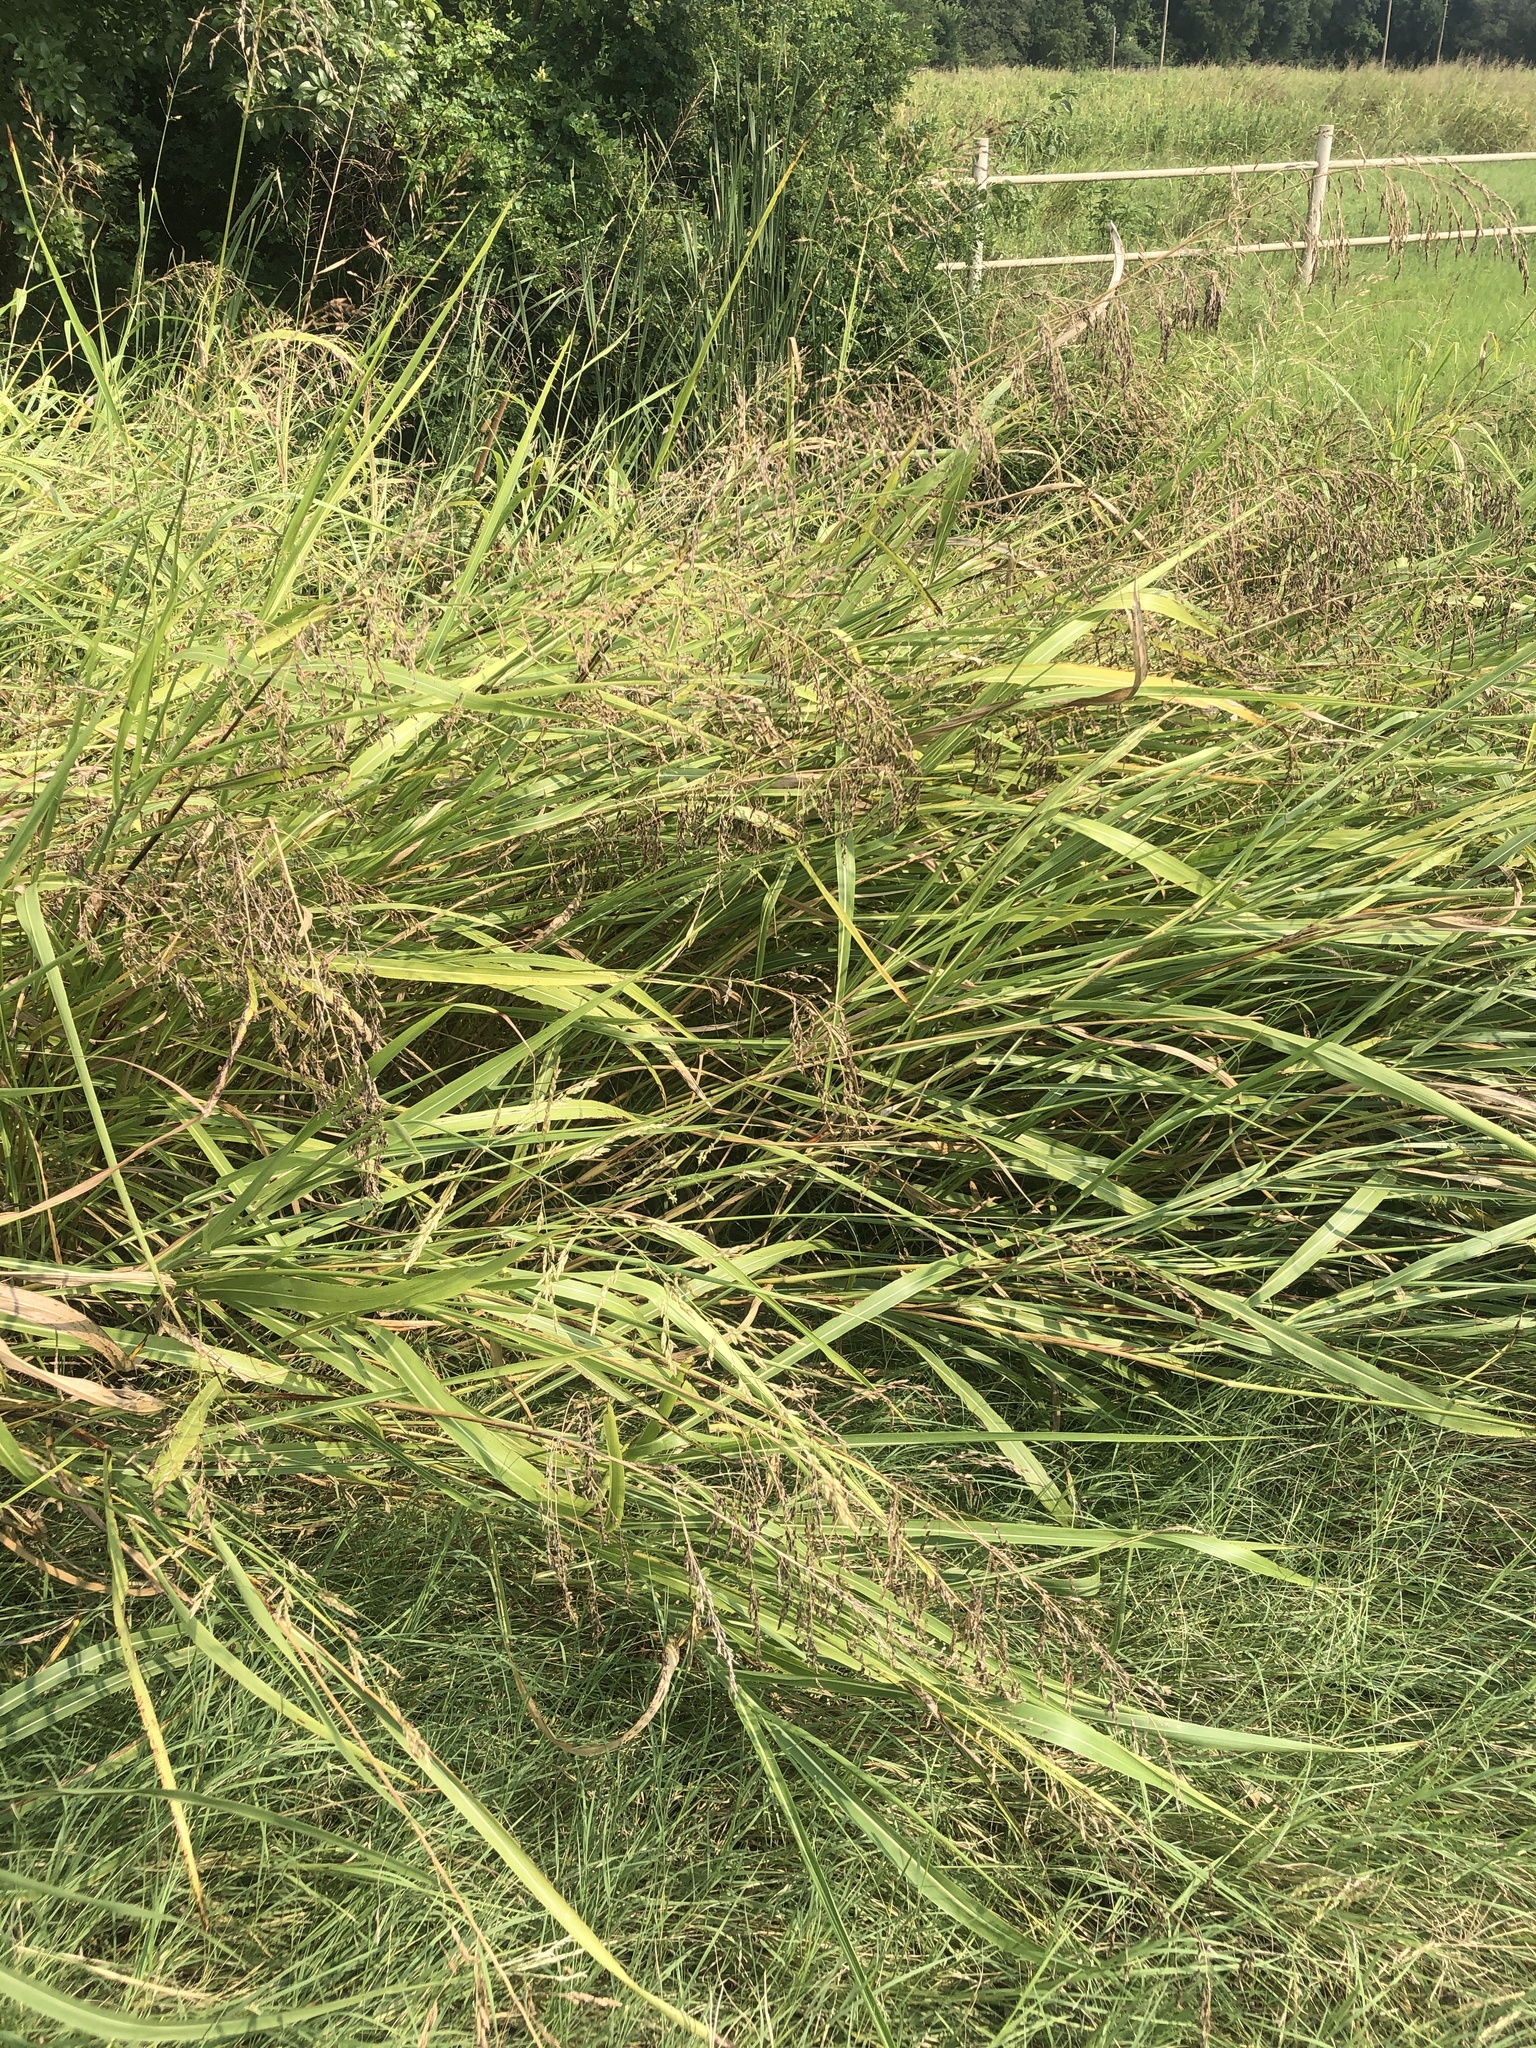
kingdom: Plantae
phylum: Tracheophyta
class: Liliopsida
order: Poales
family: Poaceae
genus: Sorghum
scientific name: Sorghum halepense
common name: Johnson-grass
